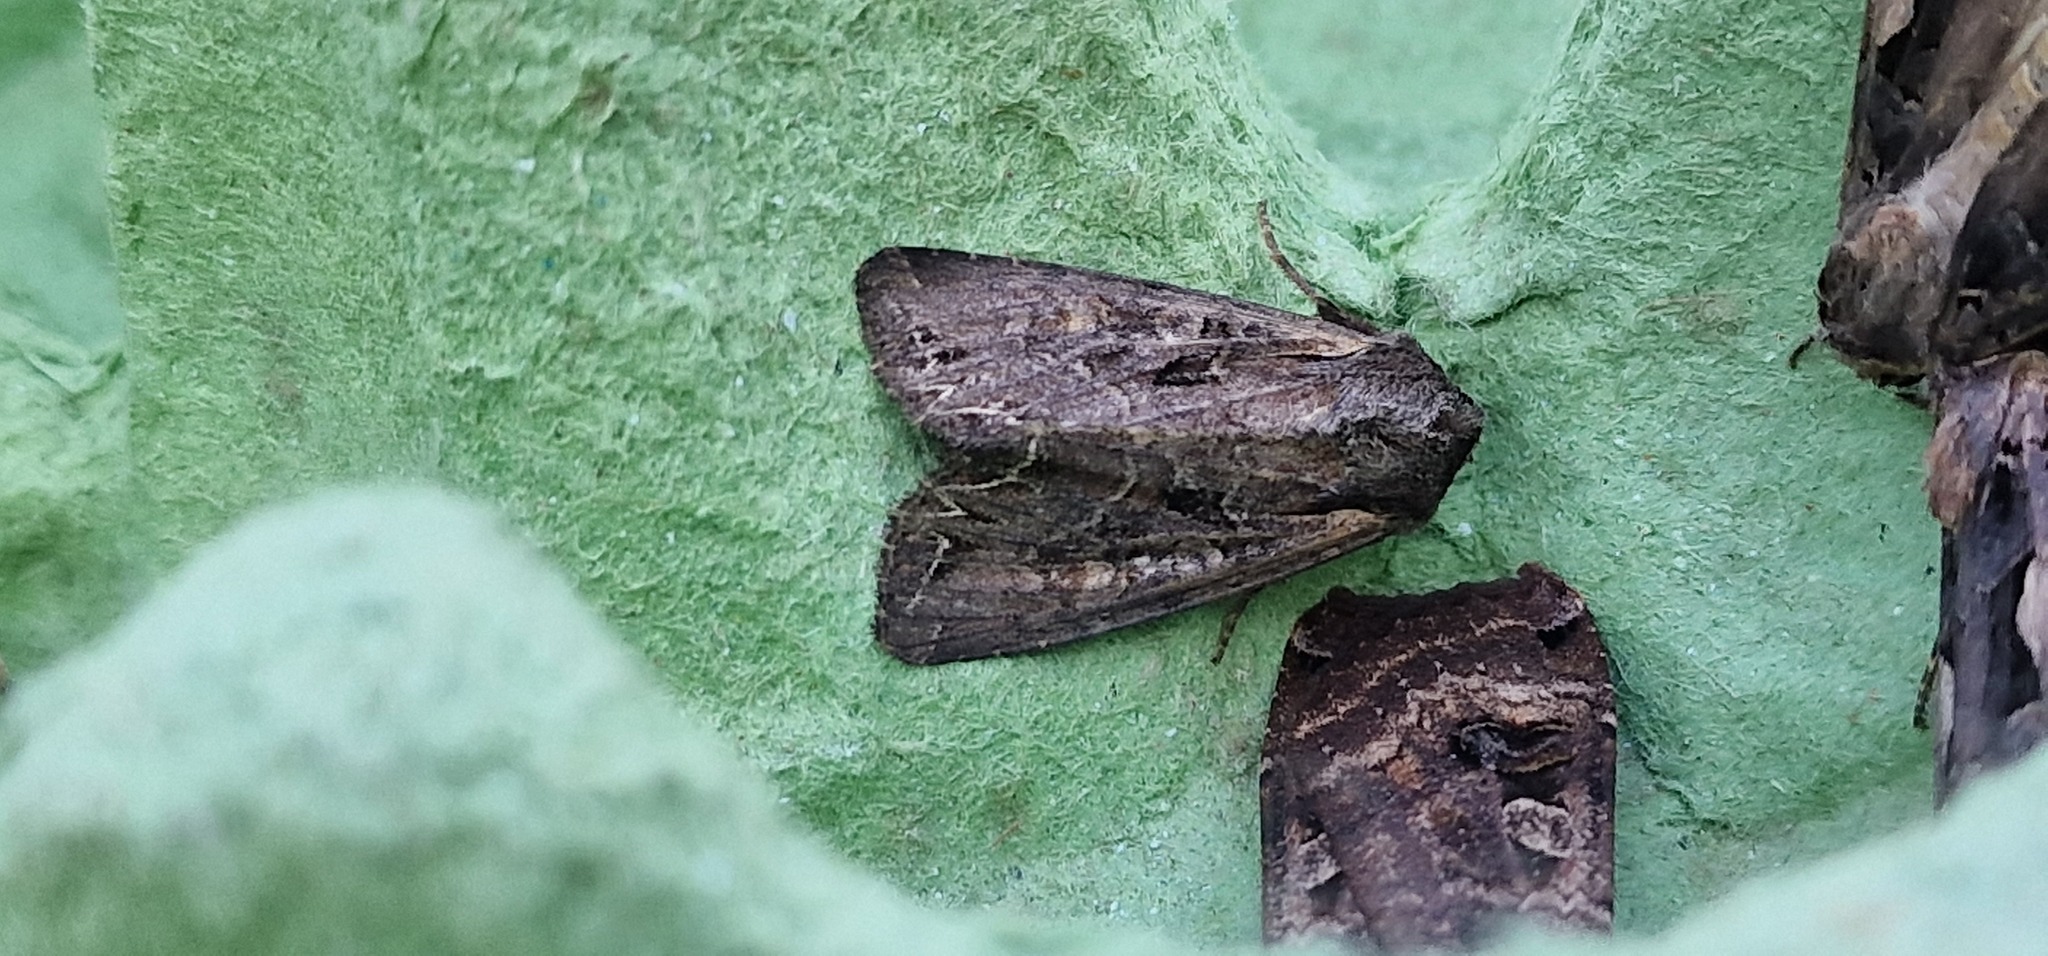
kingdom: Animalia
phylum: Arthropoda
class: Insecta
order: Lepidoptera
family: Noctuidae
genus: Lacanobia
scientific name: Lacanobia suasa
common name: Dog's tooth
